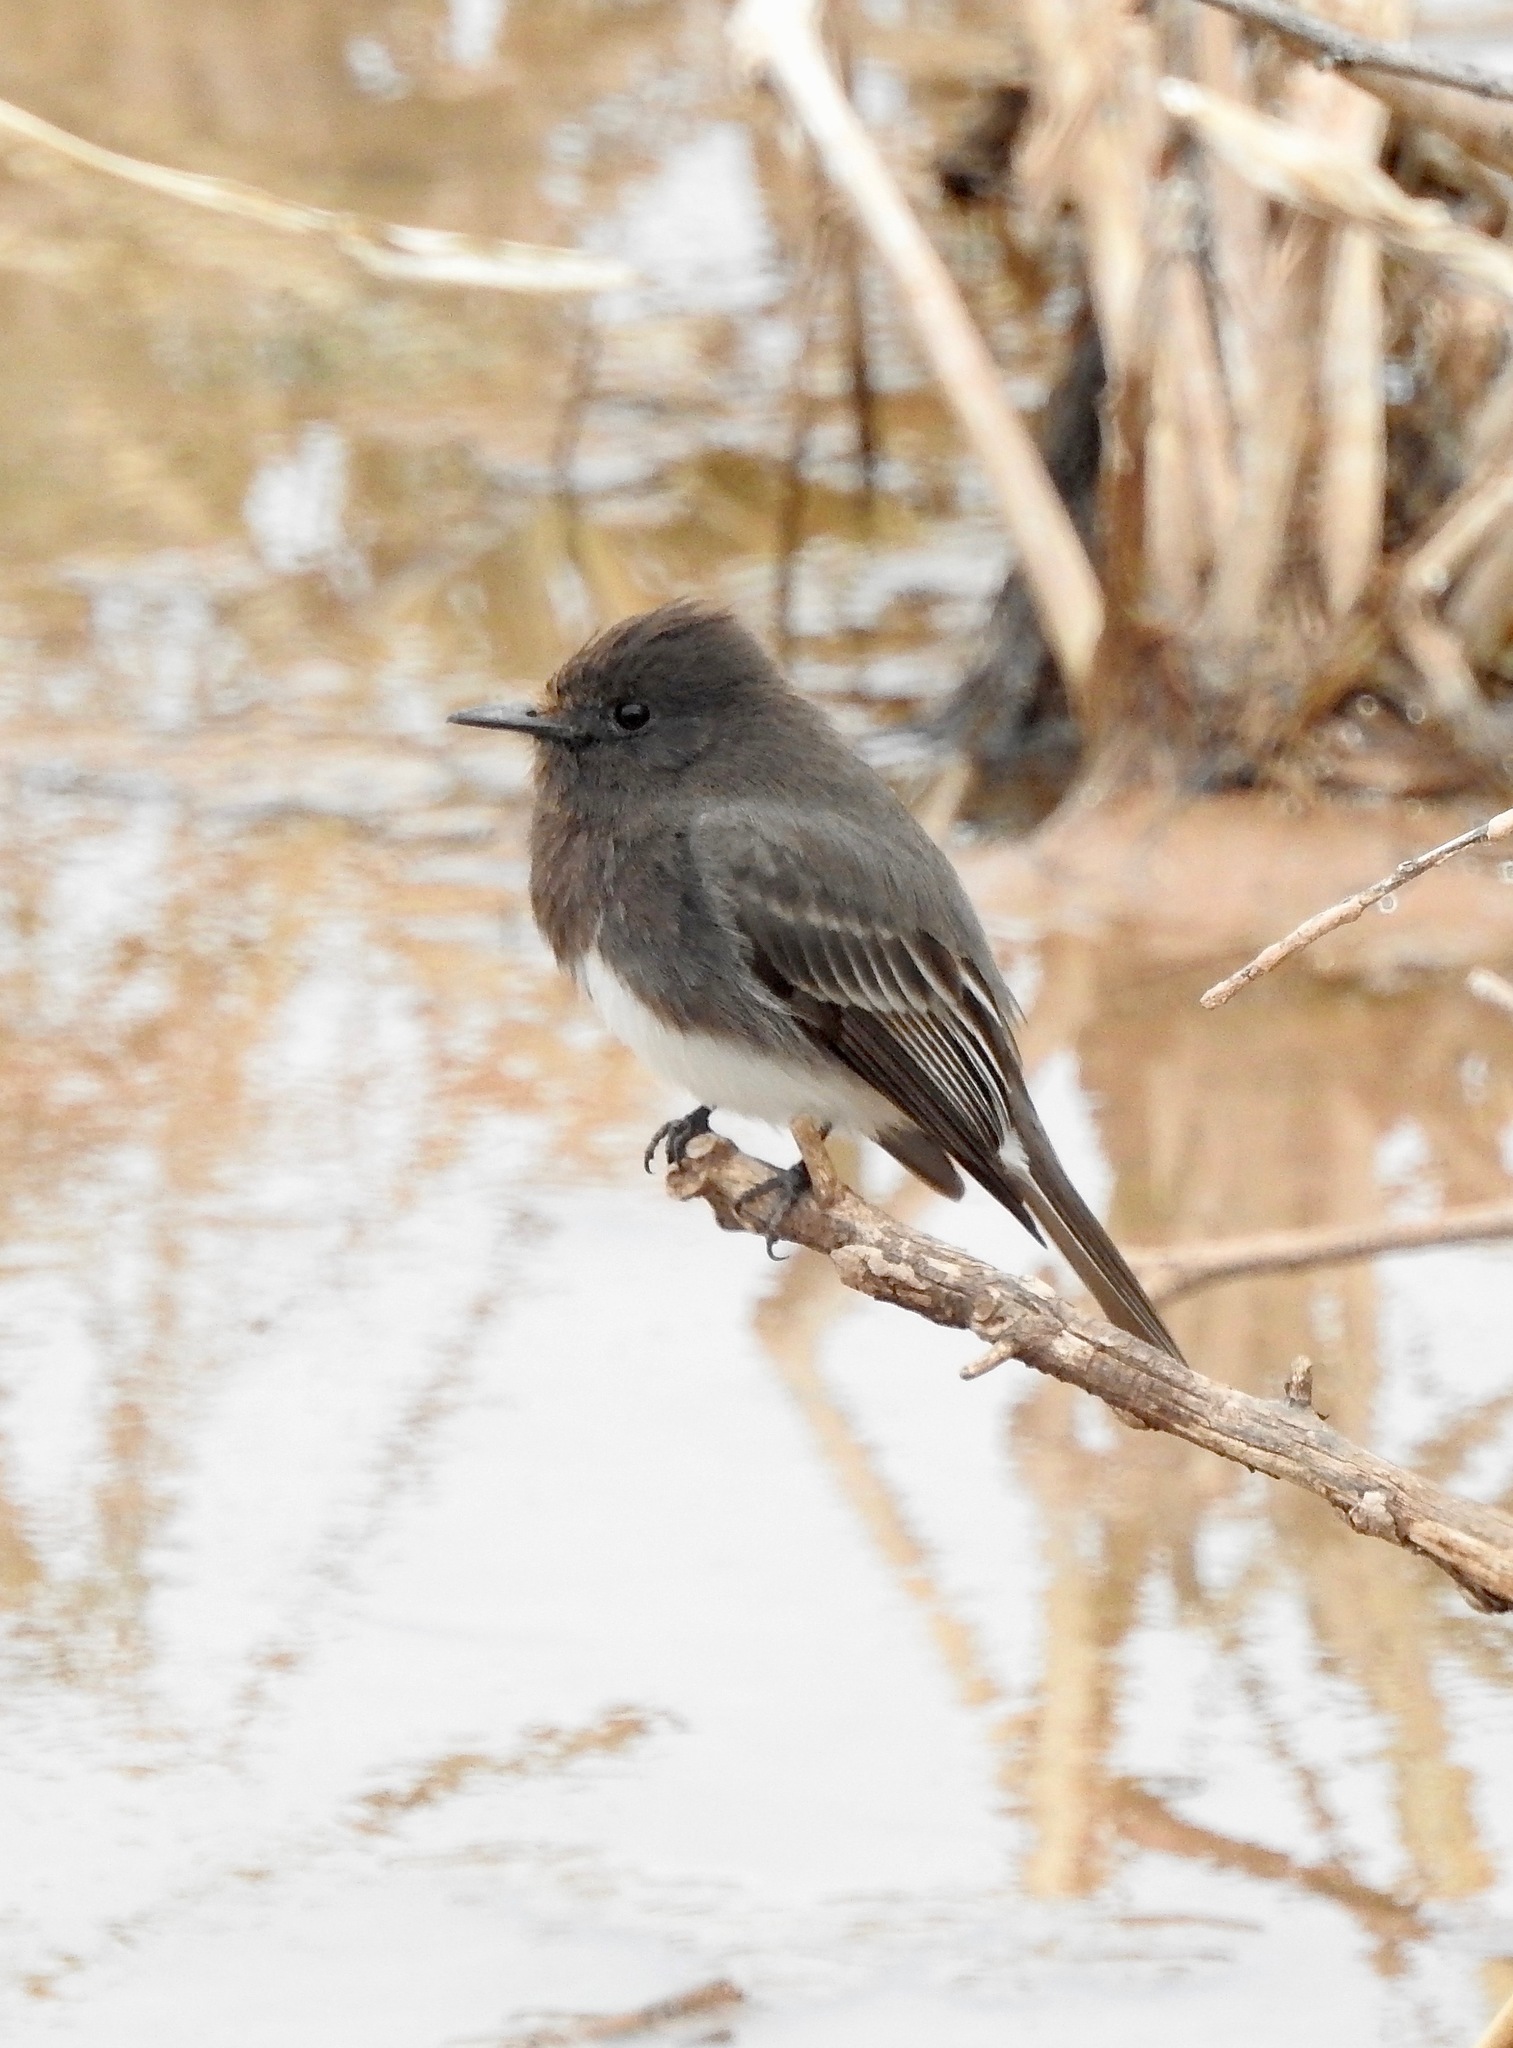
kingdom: Animalia
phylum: Chordata
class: Aves
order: Passeriformes
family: Tyrannidae
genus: Sayornis
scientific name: Sayornis nigricans
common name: Black phoebe
